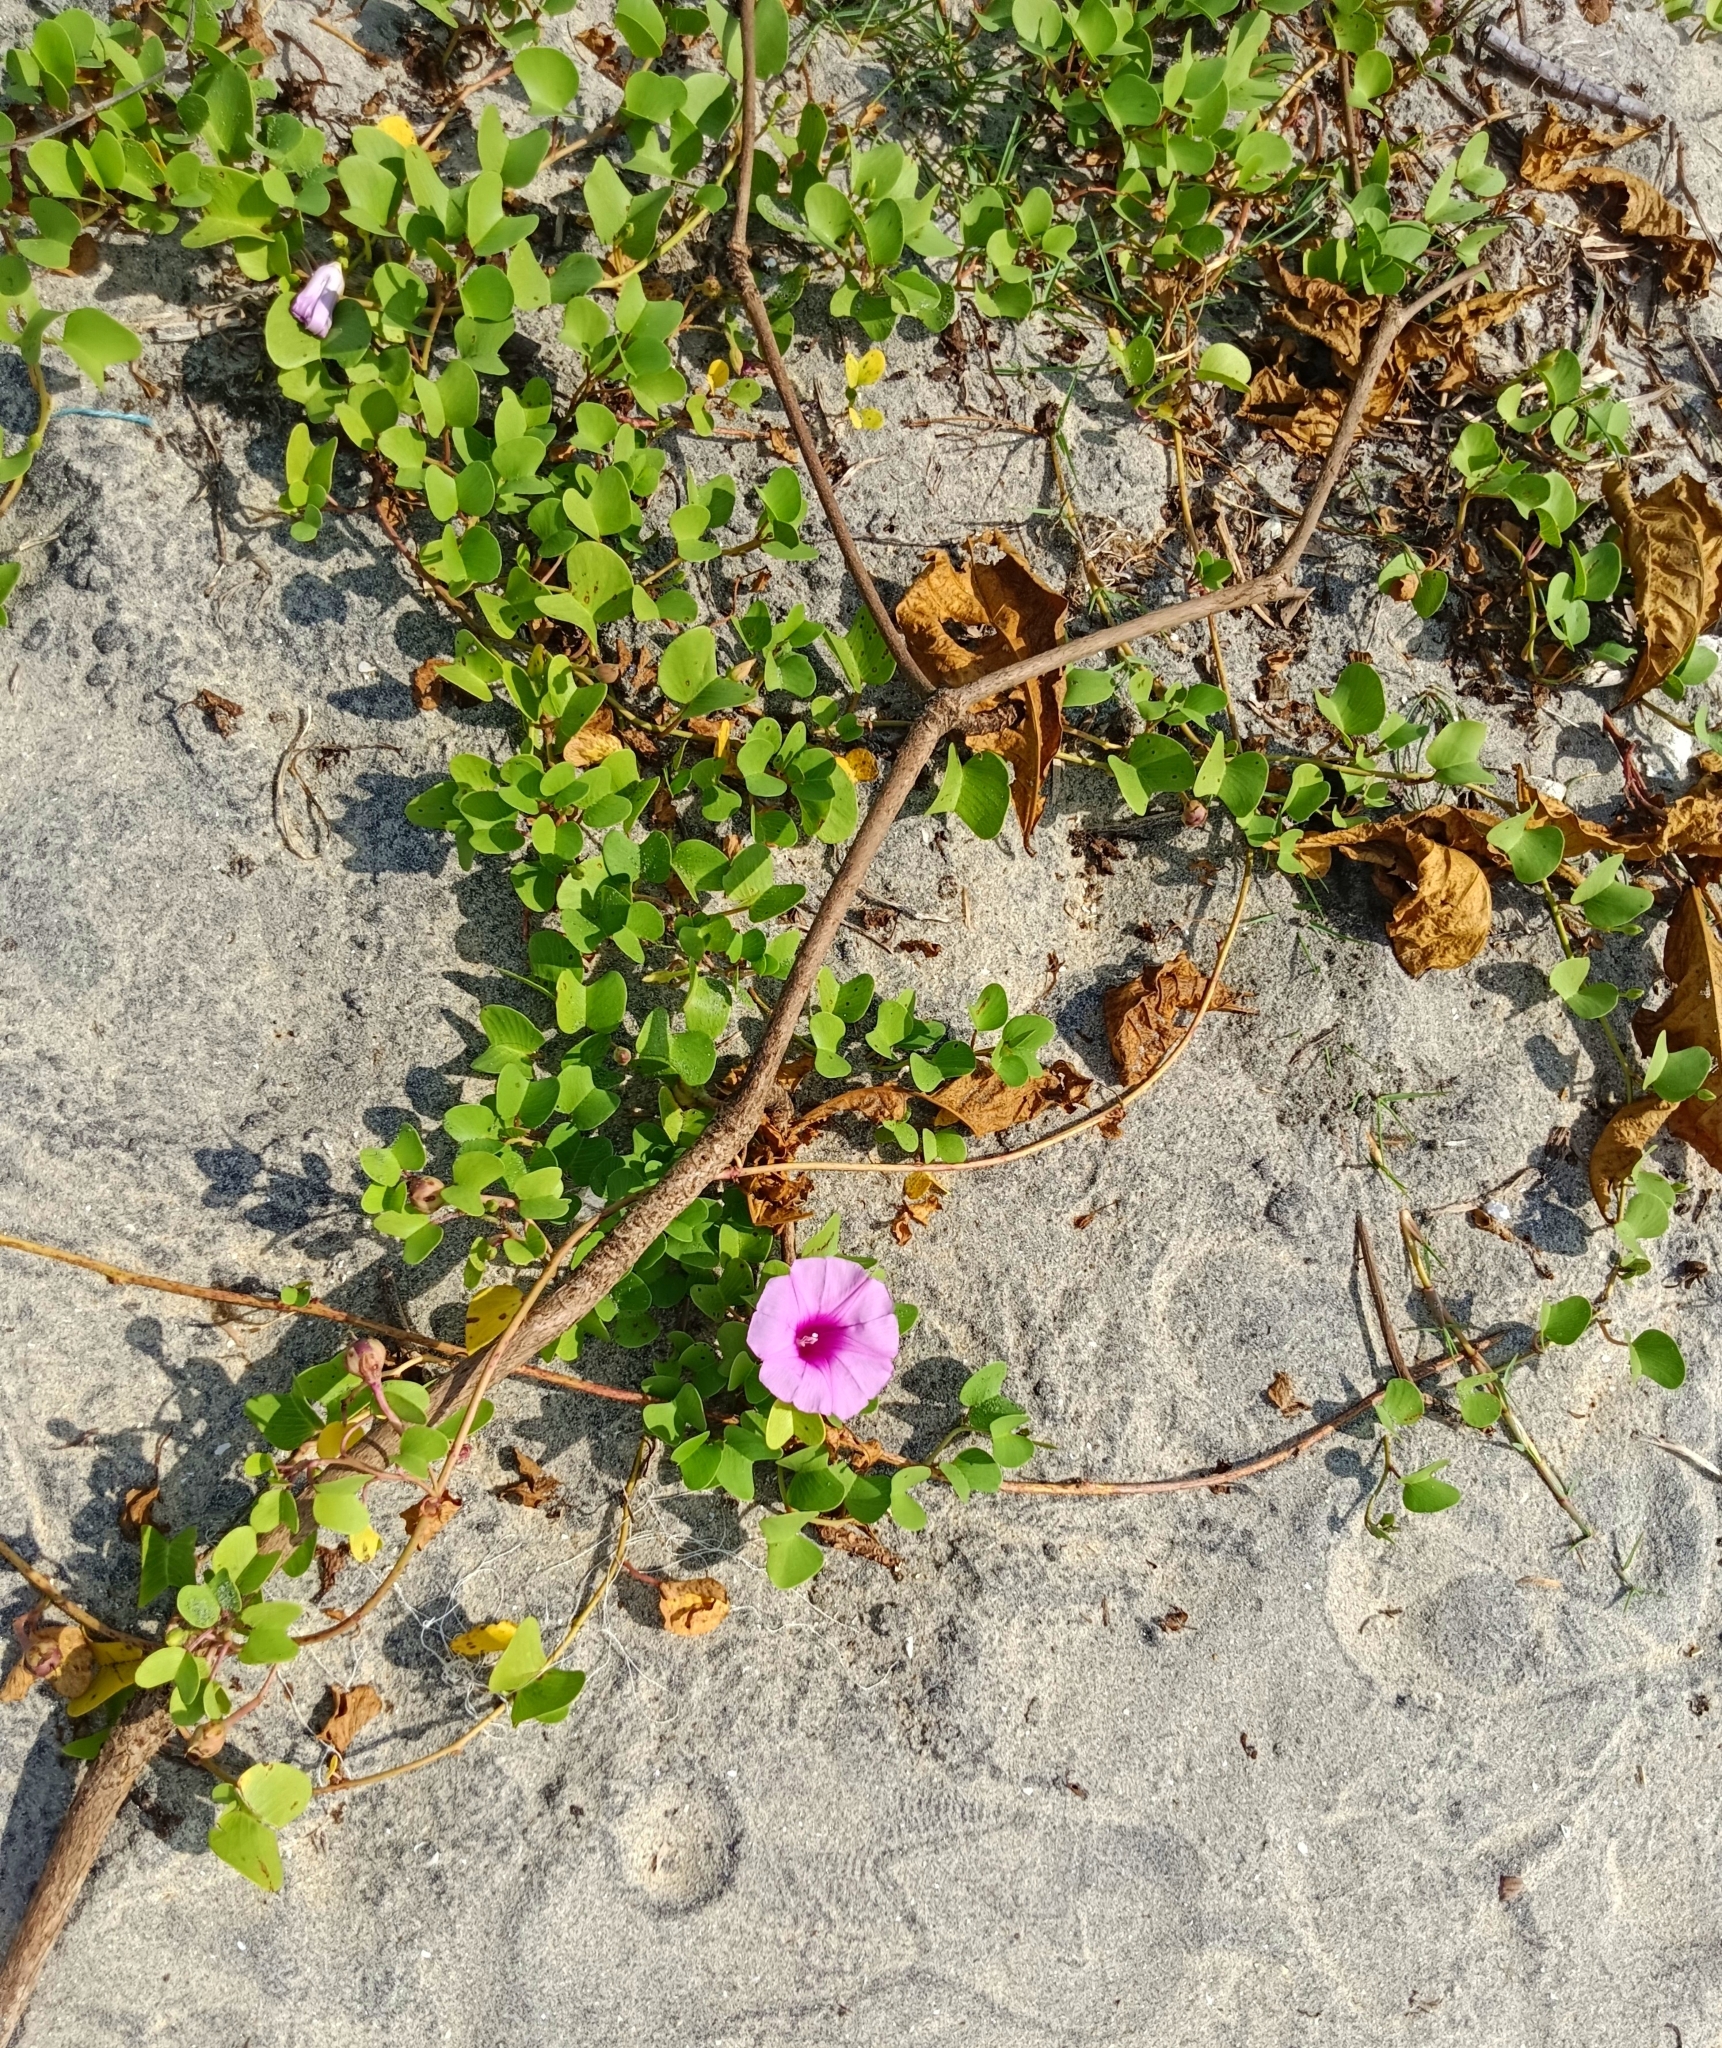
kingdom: Plantae
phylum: Tracheophyta
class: Magnoliopsida
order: Solanales
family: Convolvulaceae
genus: Ipomoea
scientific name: Ipomoea pes-caprae
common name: Beach morning glory
